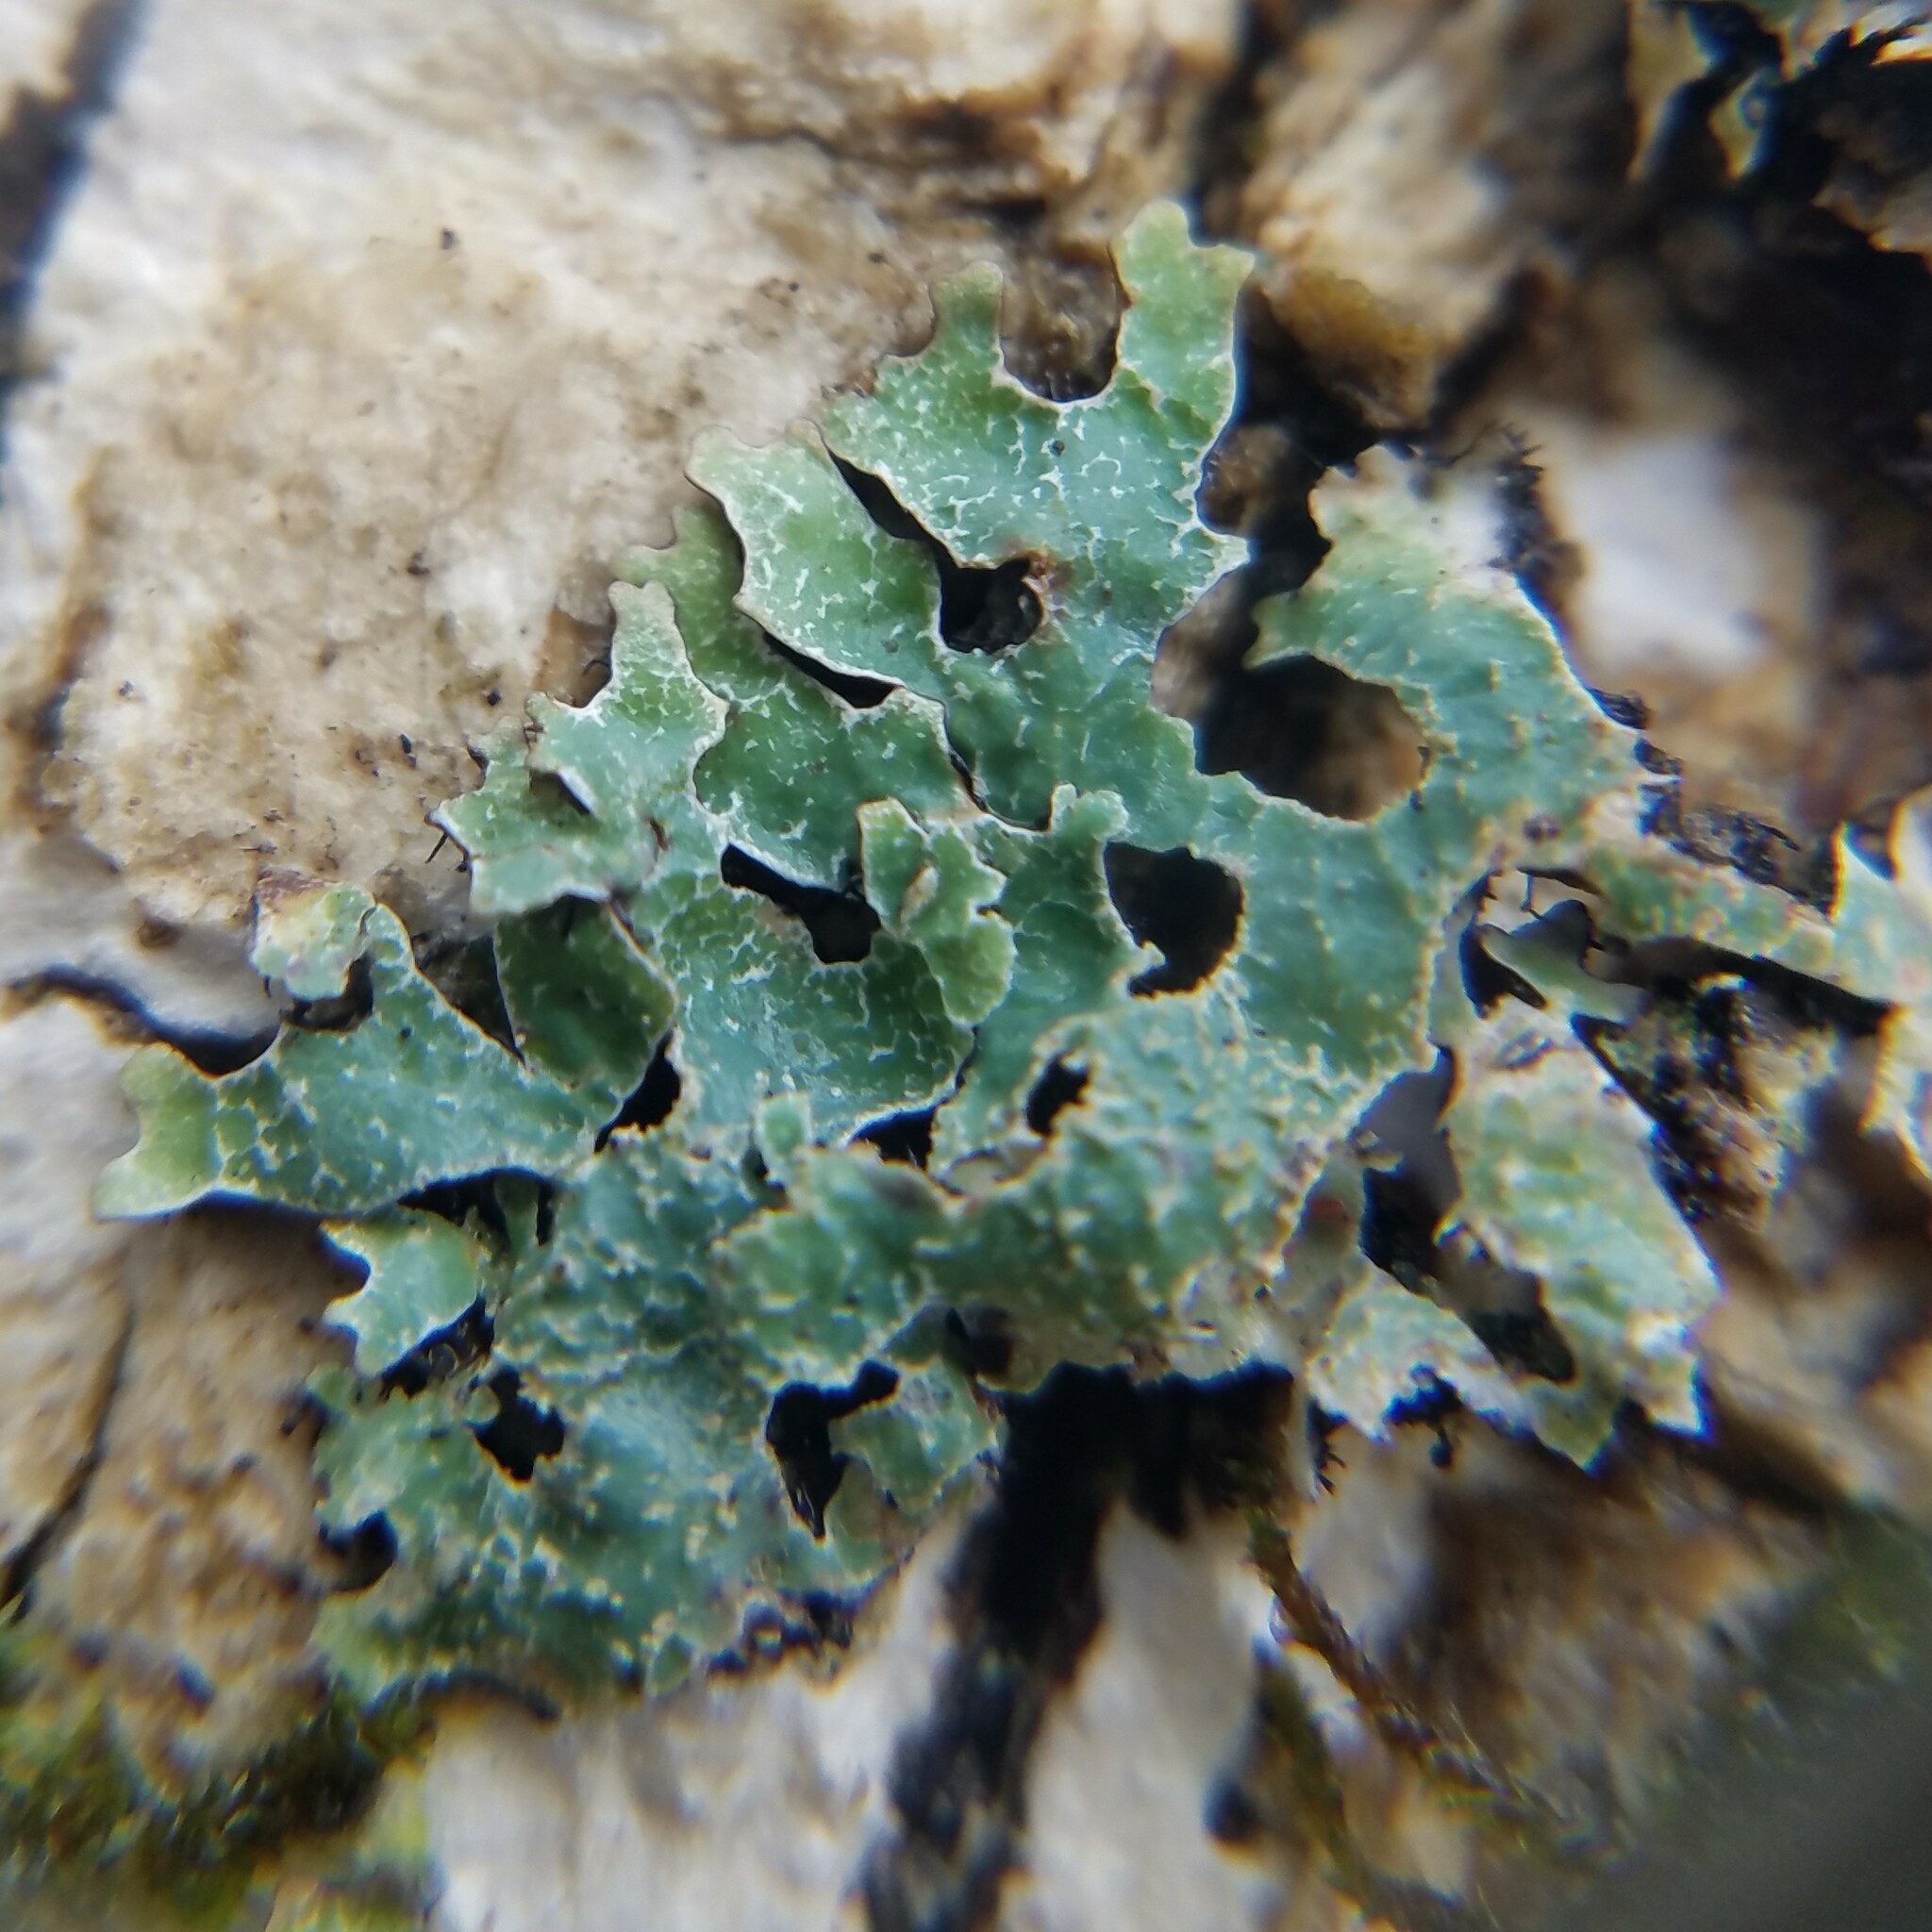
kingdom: Fungi
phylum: Ascomycota
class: Lecanoromycetes
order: Lecanorales
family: Parmeliaceae
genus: Parmelia
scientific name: Parmelia squarrosa
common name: Bottle brush shield lichen
